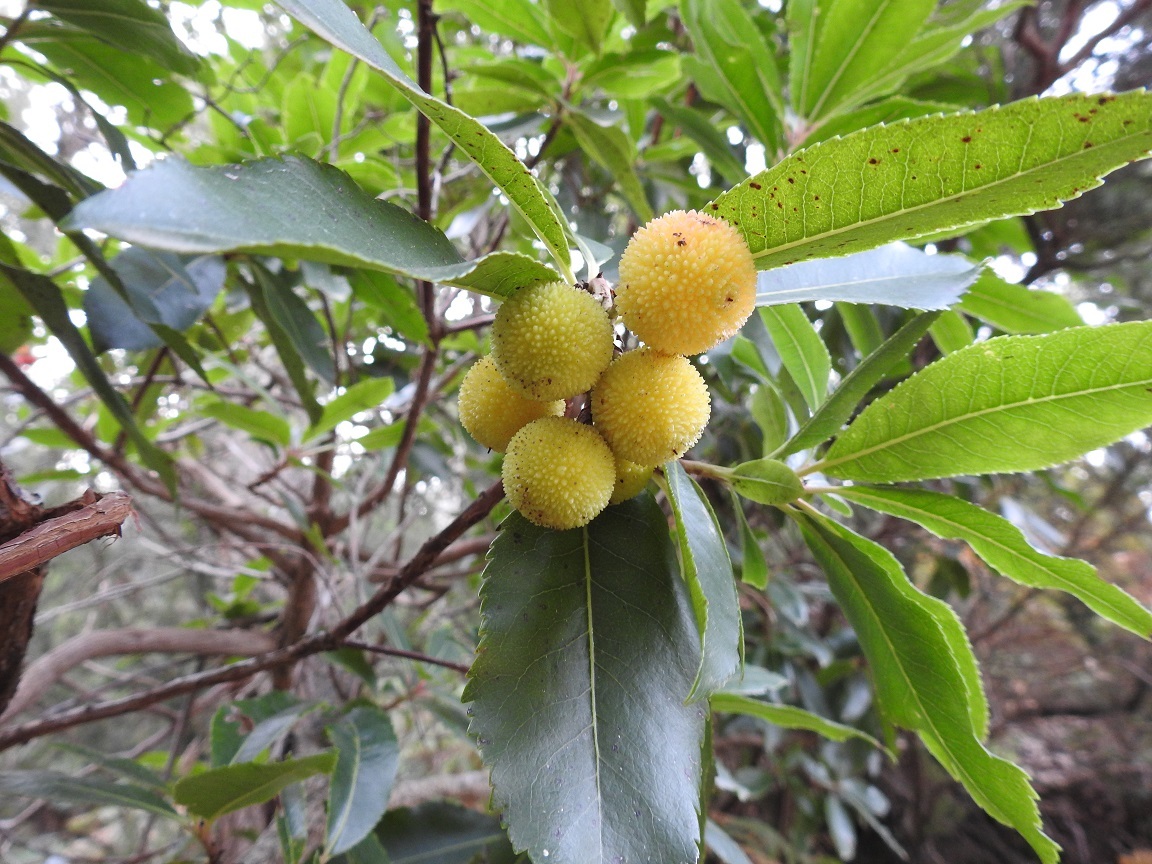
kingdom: Plantae
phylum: Tracheophyta
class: Magnoliopsida
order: Ericales
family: Ericaceae
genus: Arbutus
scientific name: Arbutus unedo
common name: Strawberry-tree
